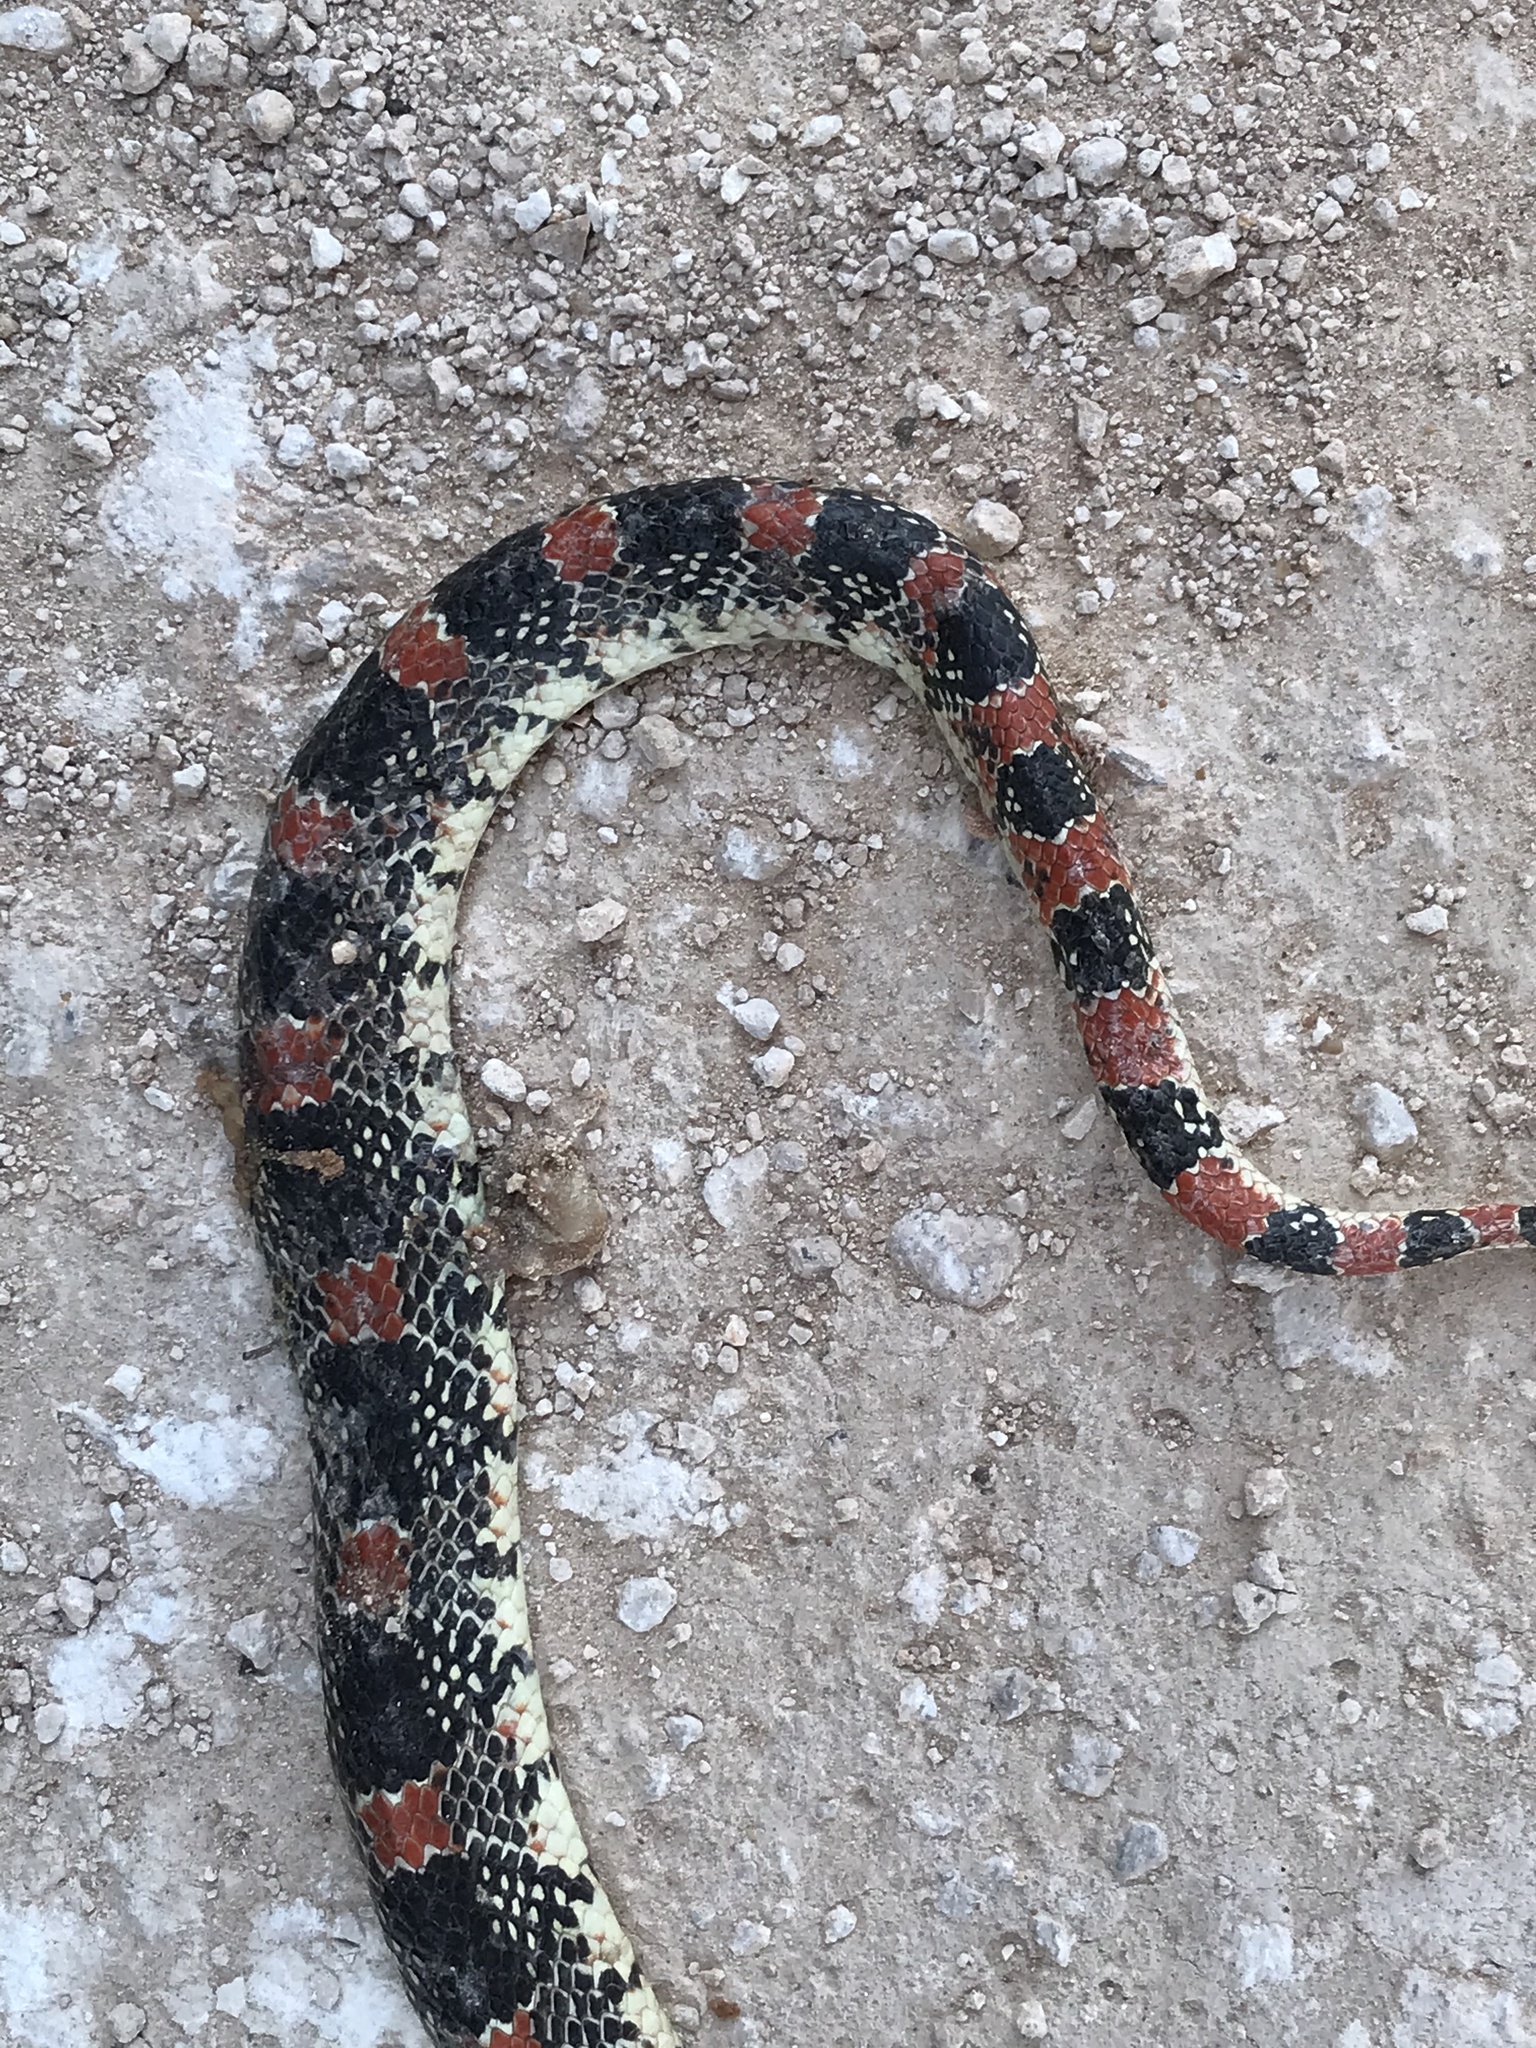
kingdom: Animalia
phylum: Chordata
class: Squamata
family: Colubridae
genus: Rhinocheilus
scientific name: Rhinocheilus lecontei
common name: Longnose snake
